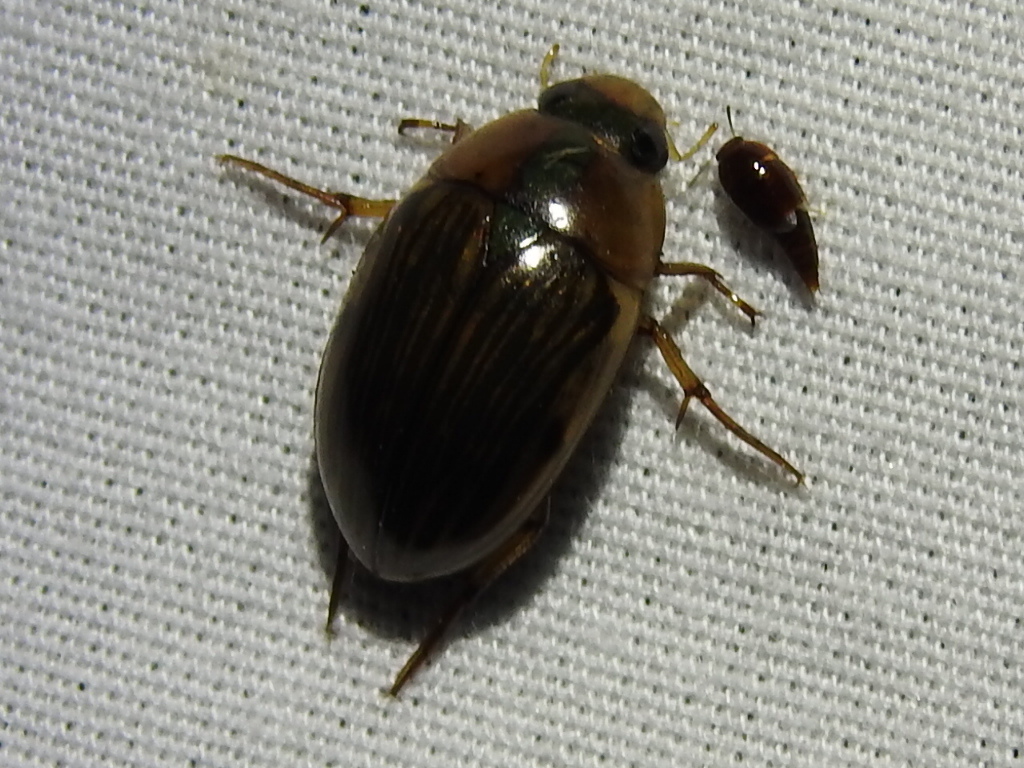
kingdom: Animalia
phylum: Arthropoda
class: Insecta
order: Coleoptera
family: Hydrophilidae
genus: Tropisternus
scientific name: Tropisternus collaris
